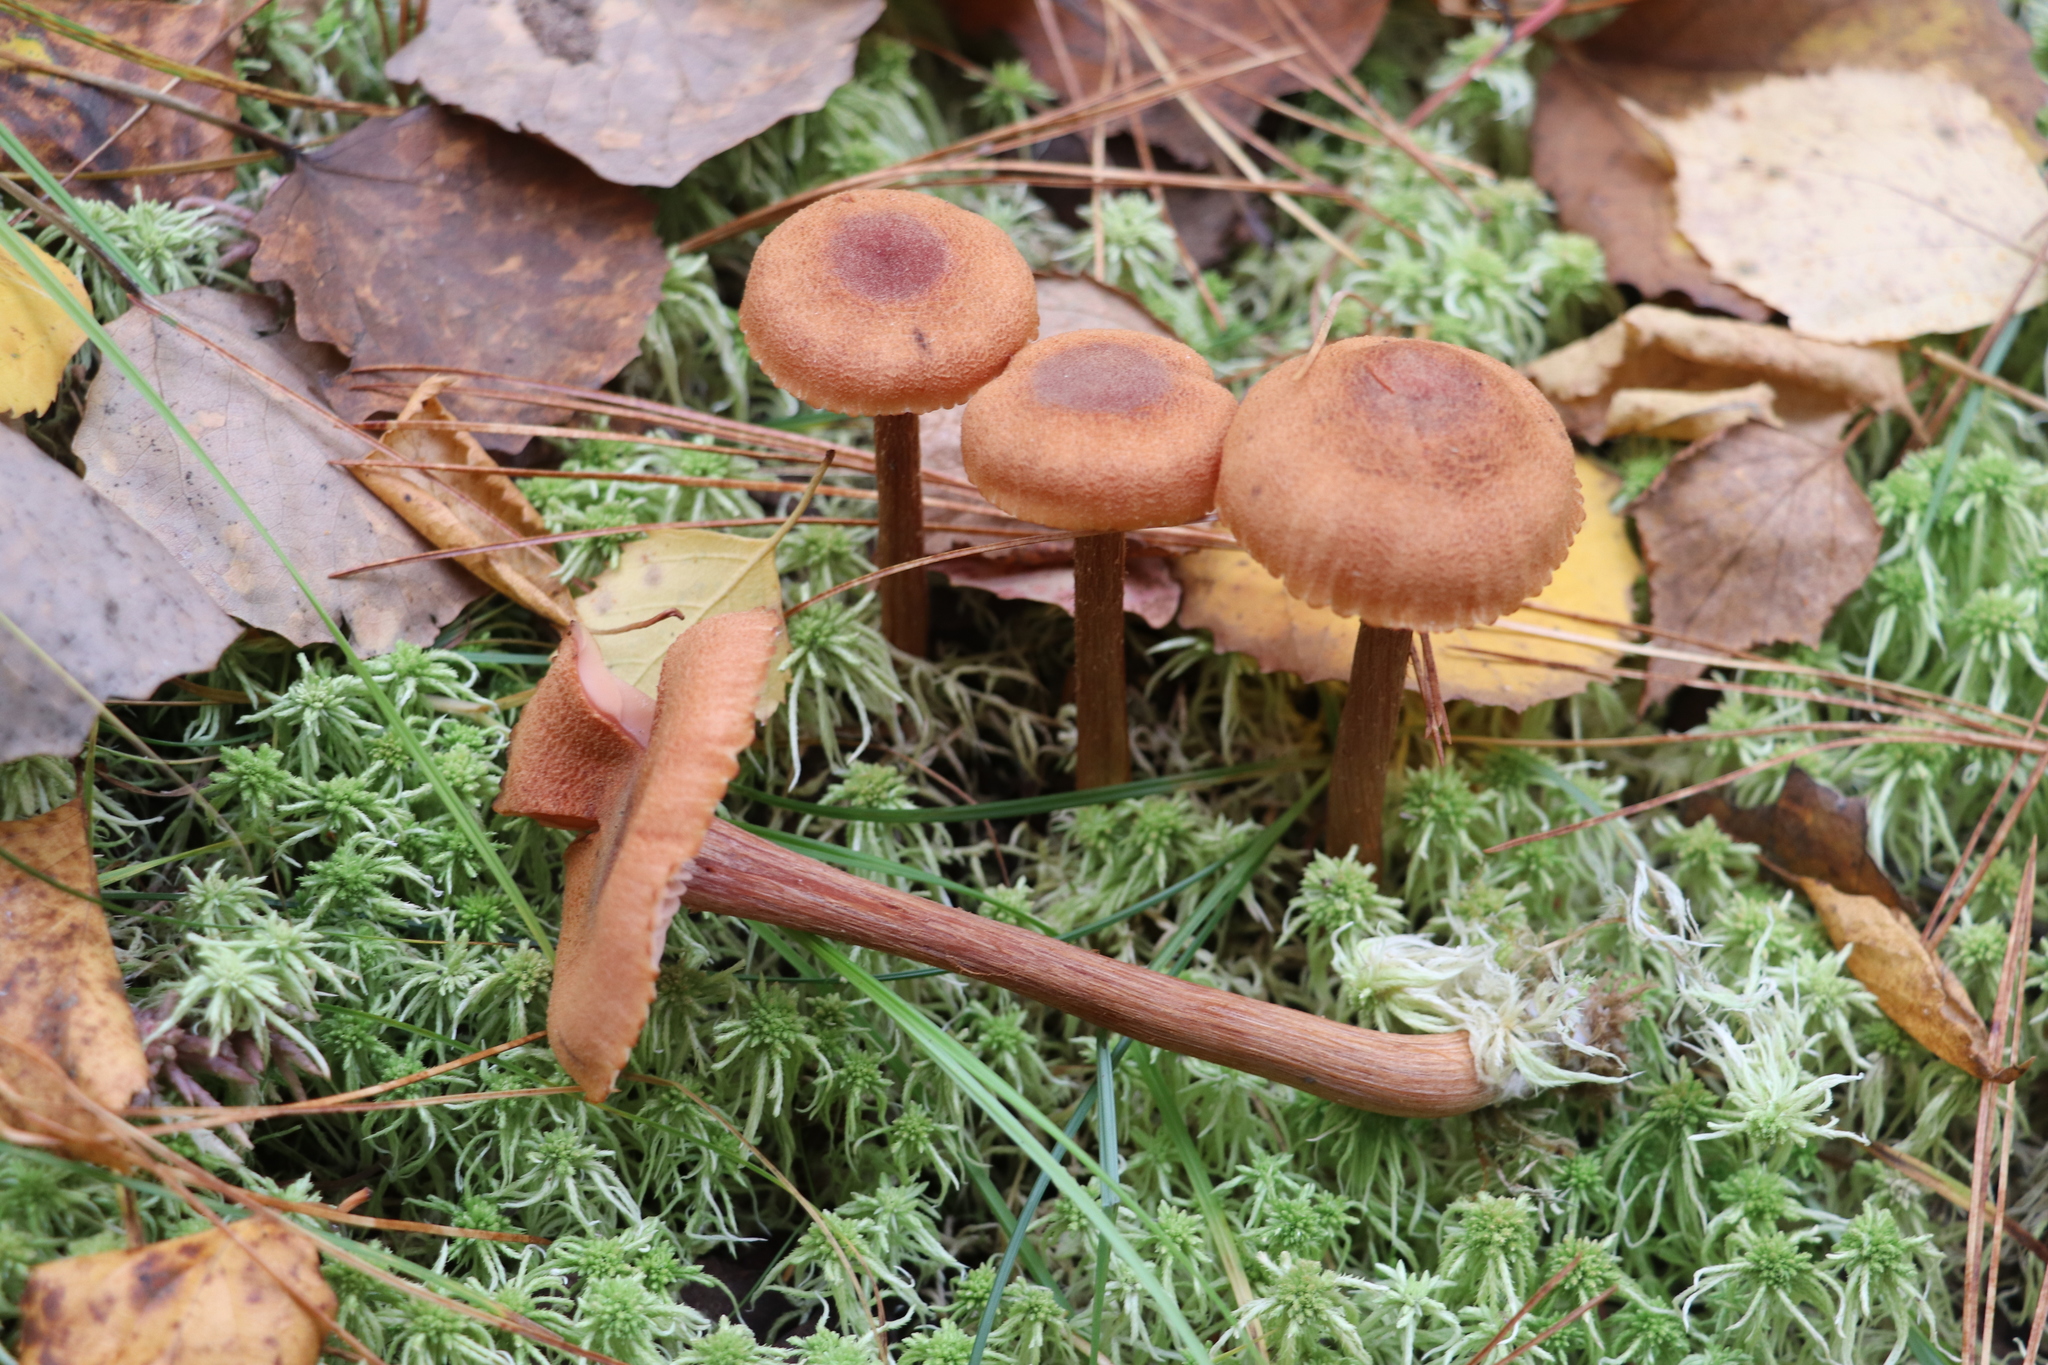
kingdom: Fungi
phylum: Basidiomycota
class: Agaricomycetes
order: Agaricales
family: Hydnangiaceae
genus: Laccaria
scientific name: Laccaria proxima
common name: Scurfy deceiver
